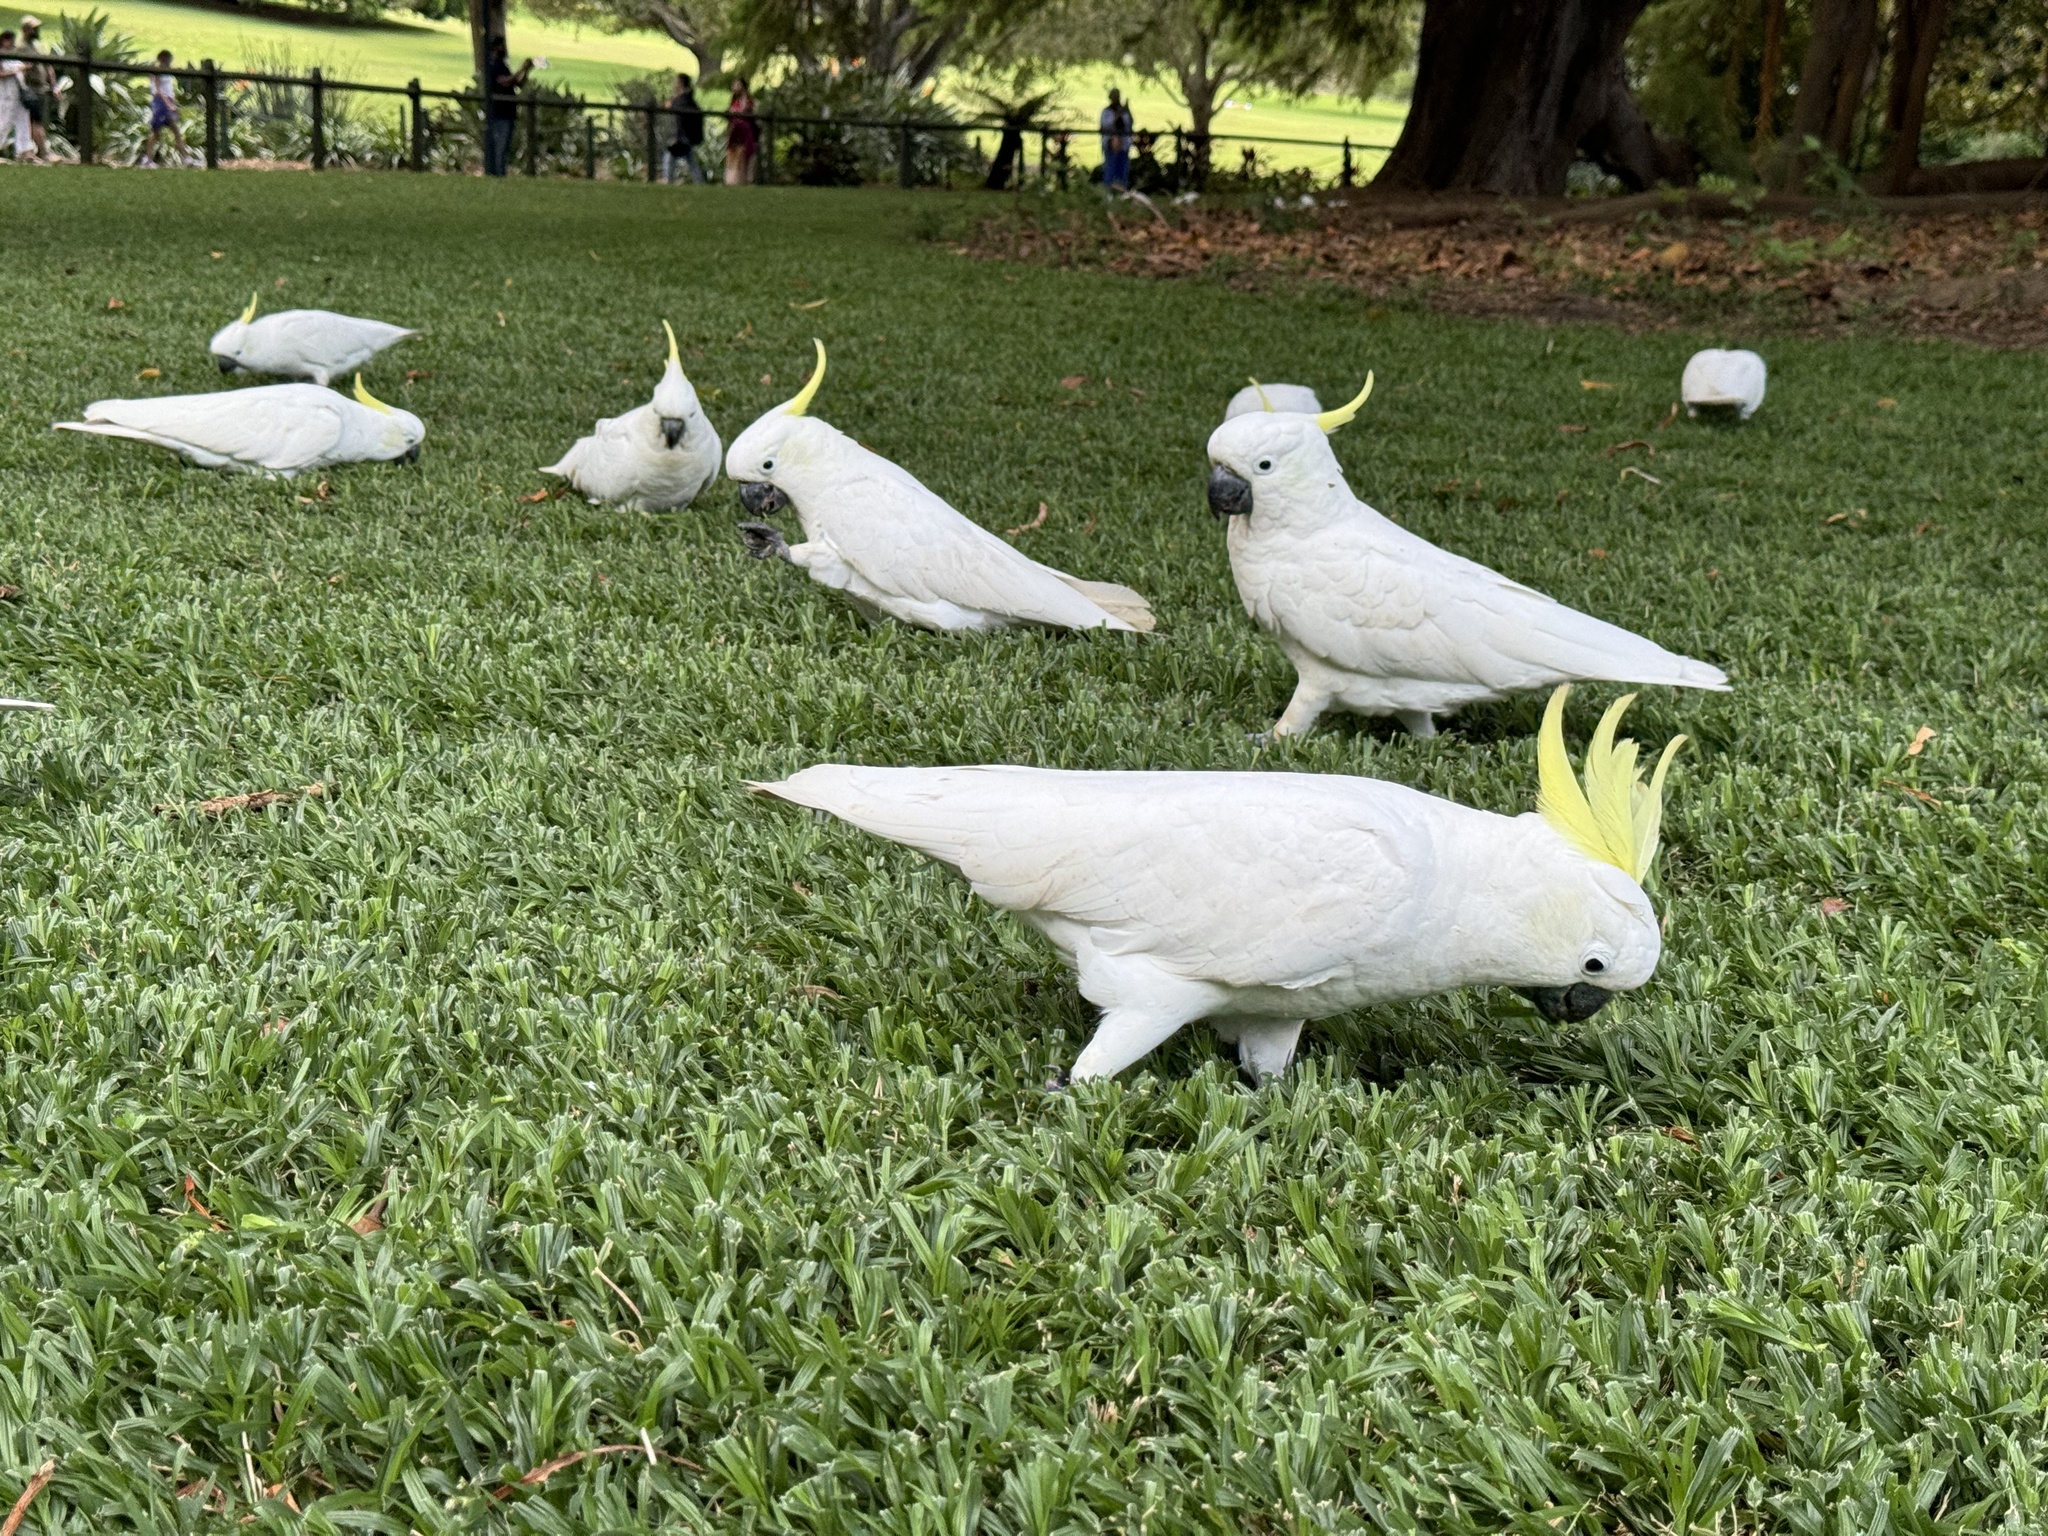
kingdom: Animalia
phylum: Chordata
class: Aves
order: Psittaciformes
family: Psittacidae
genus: Cacatua
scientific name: Cacatua galerita
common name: Sulphur-crested cockatoo
